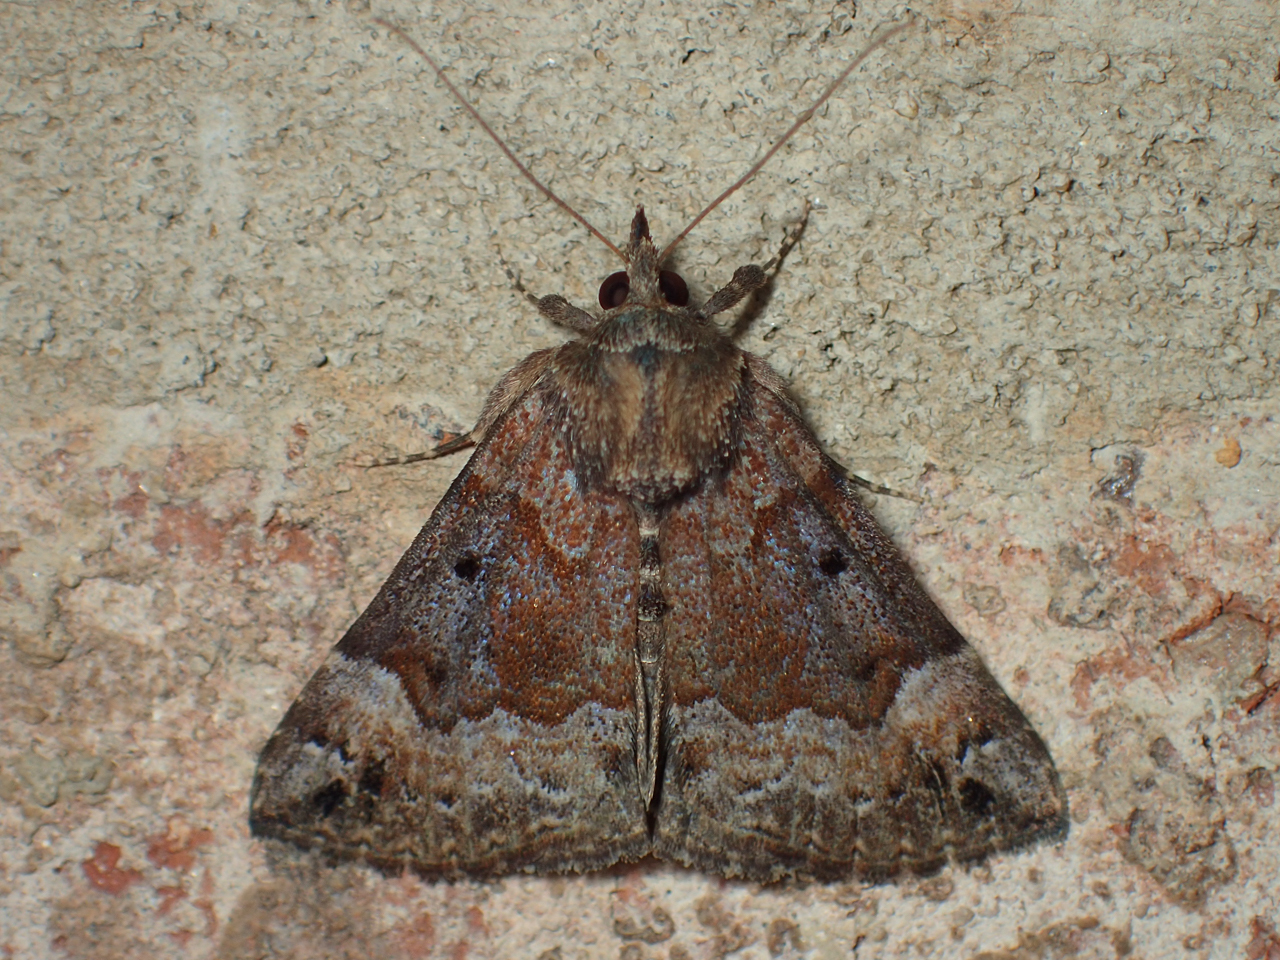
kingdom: Animalia
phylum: Arthropoda
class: Insecta
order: Lepidoptera
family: Erebidae
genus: Hypena
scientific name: Hypena palparia
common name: Mottled bomolocha moth
